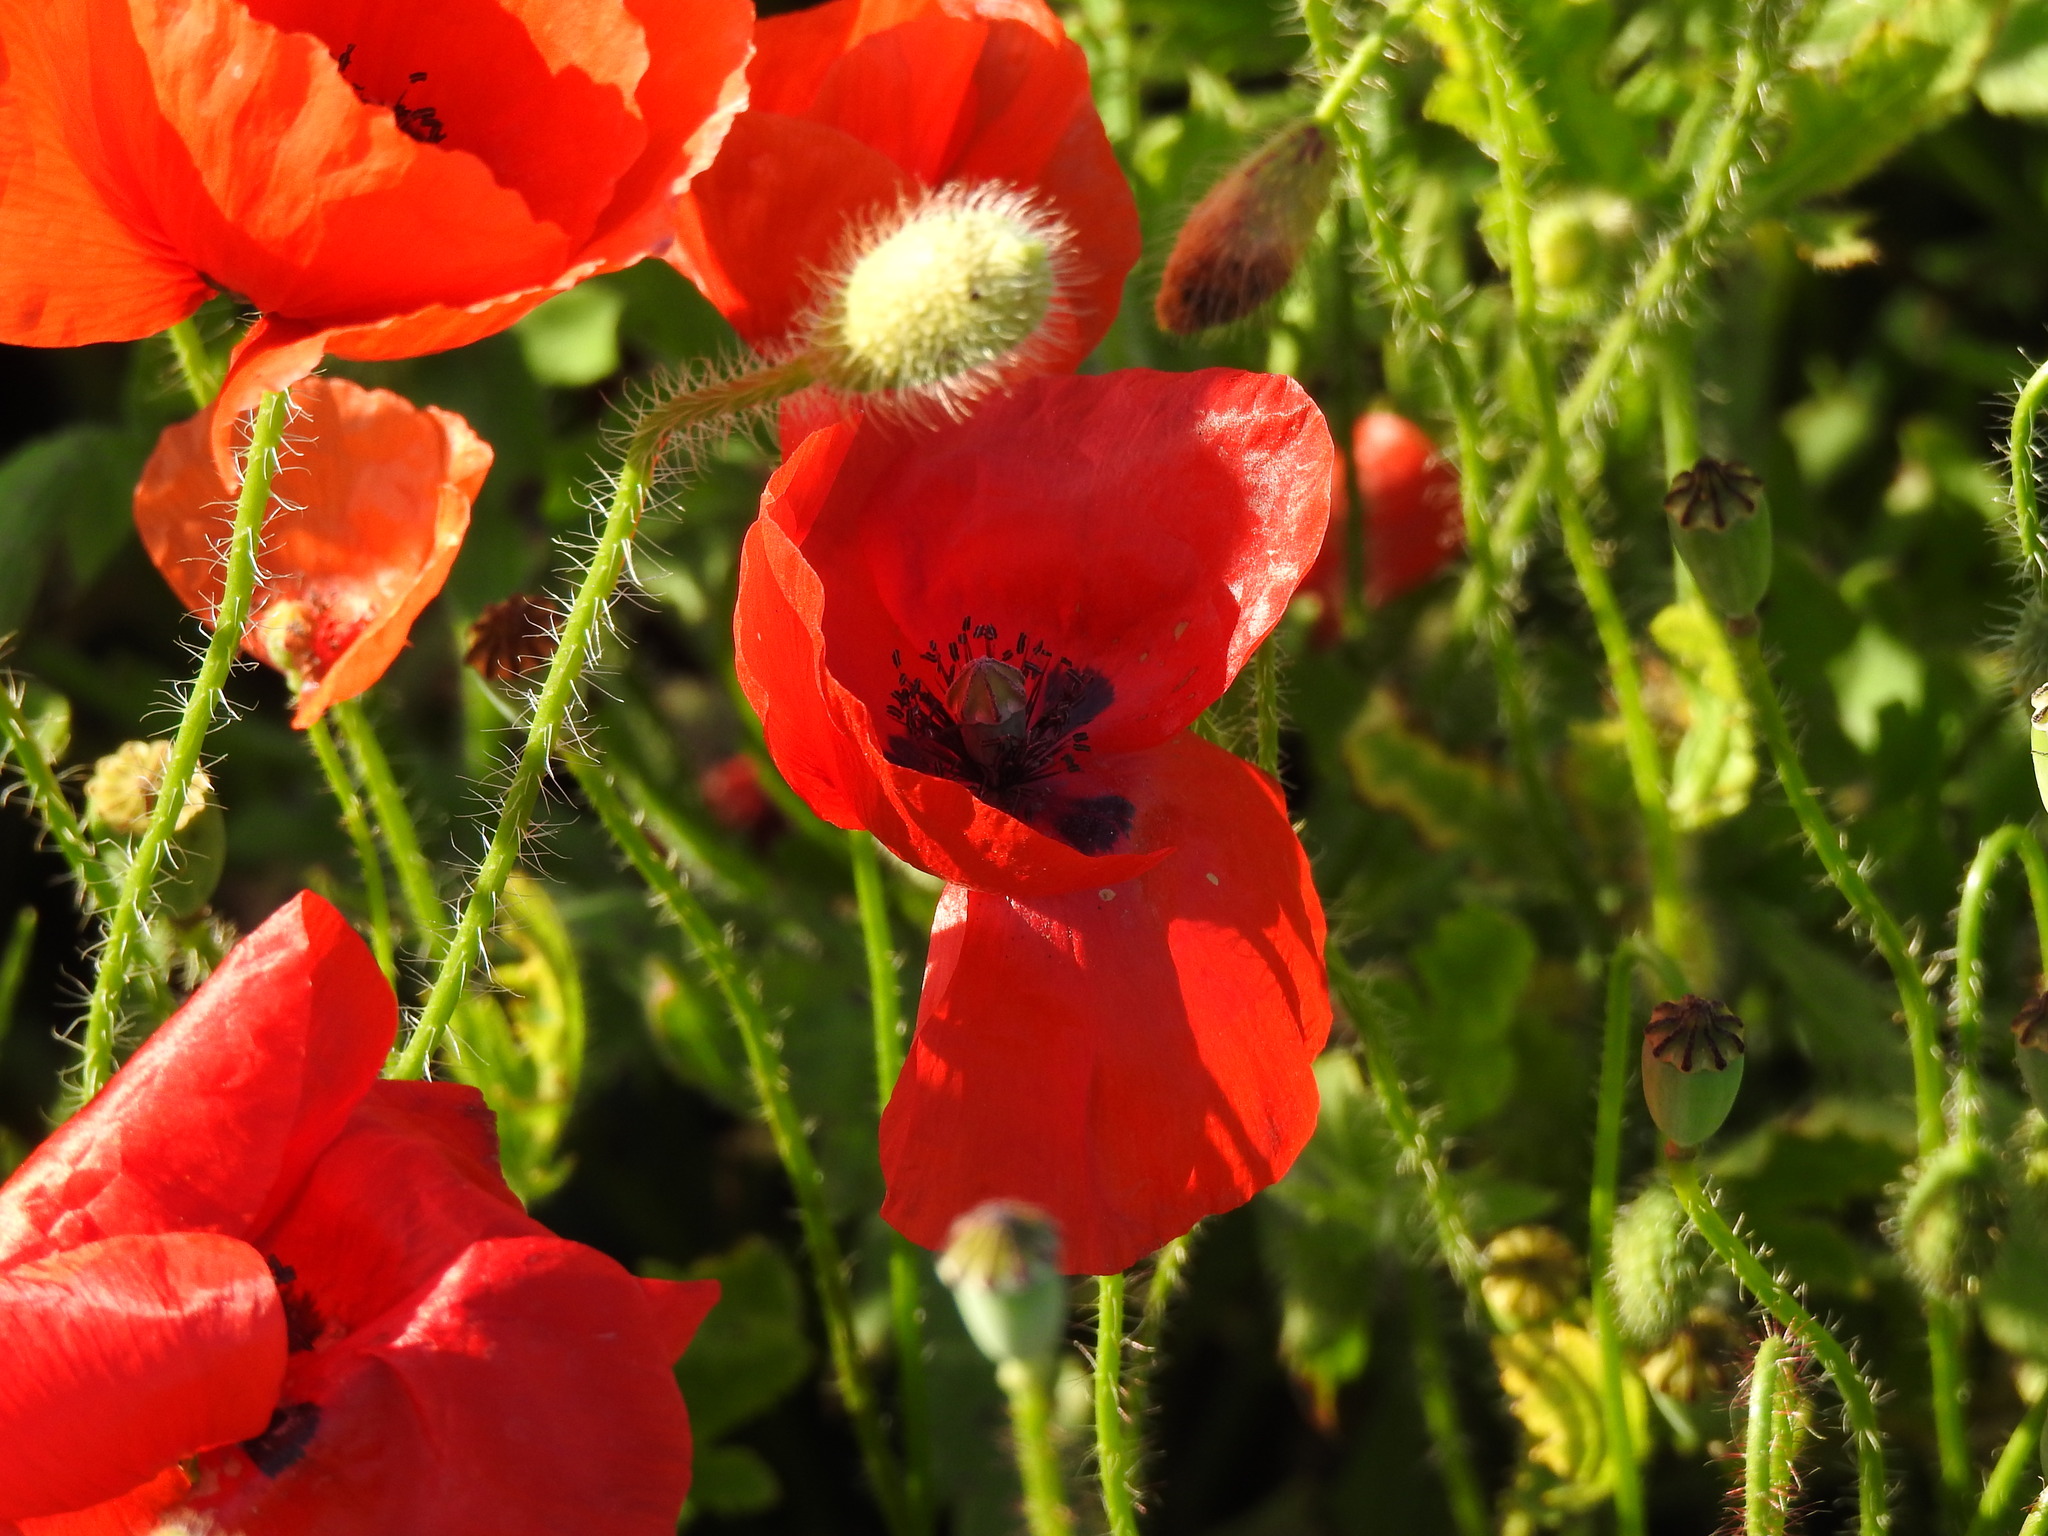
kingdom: Plantae
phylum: Tracheophyta
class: Magnoliopsida
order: Ranunculales
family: Papaveraceae
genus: Papaver
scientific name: Papaver rhoeas
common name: Corn poppy
